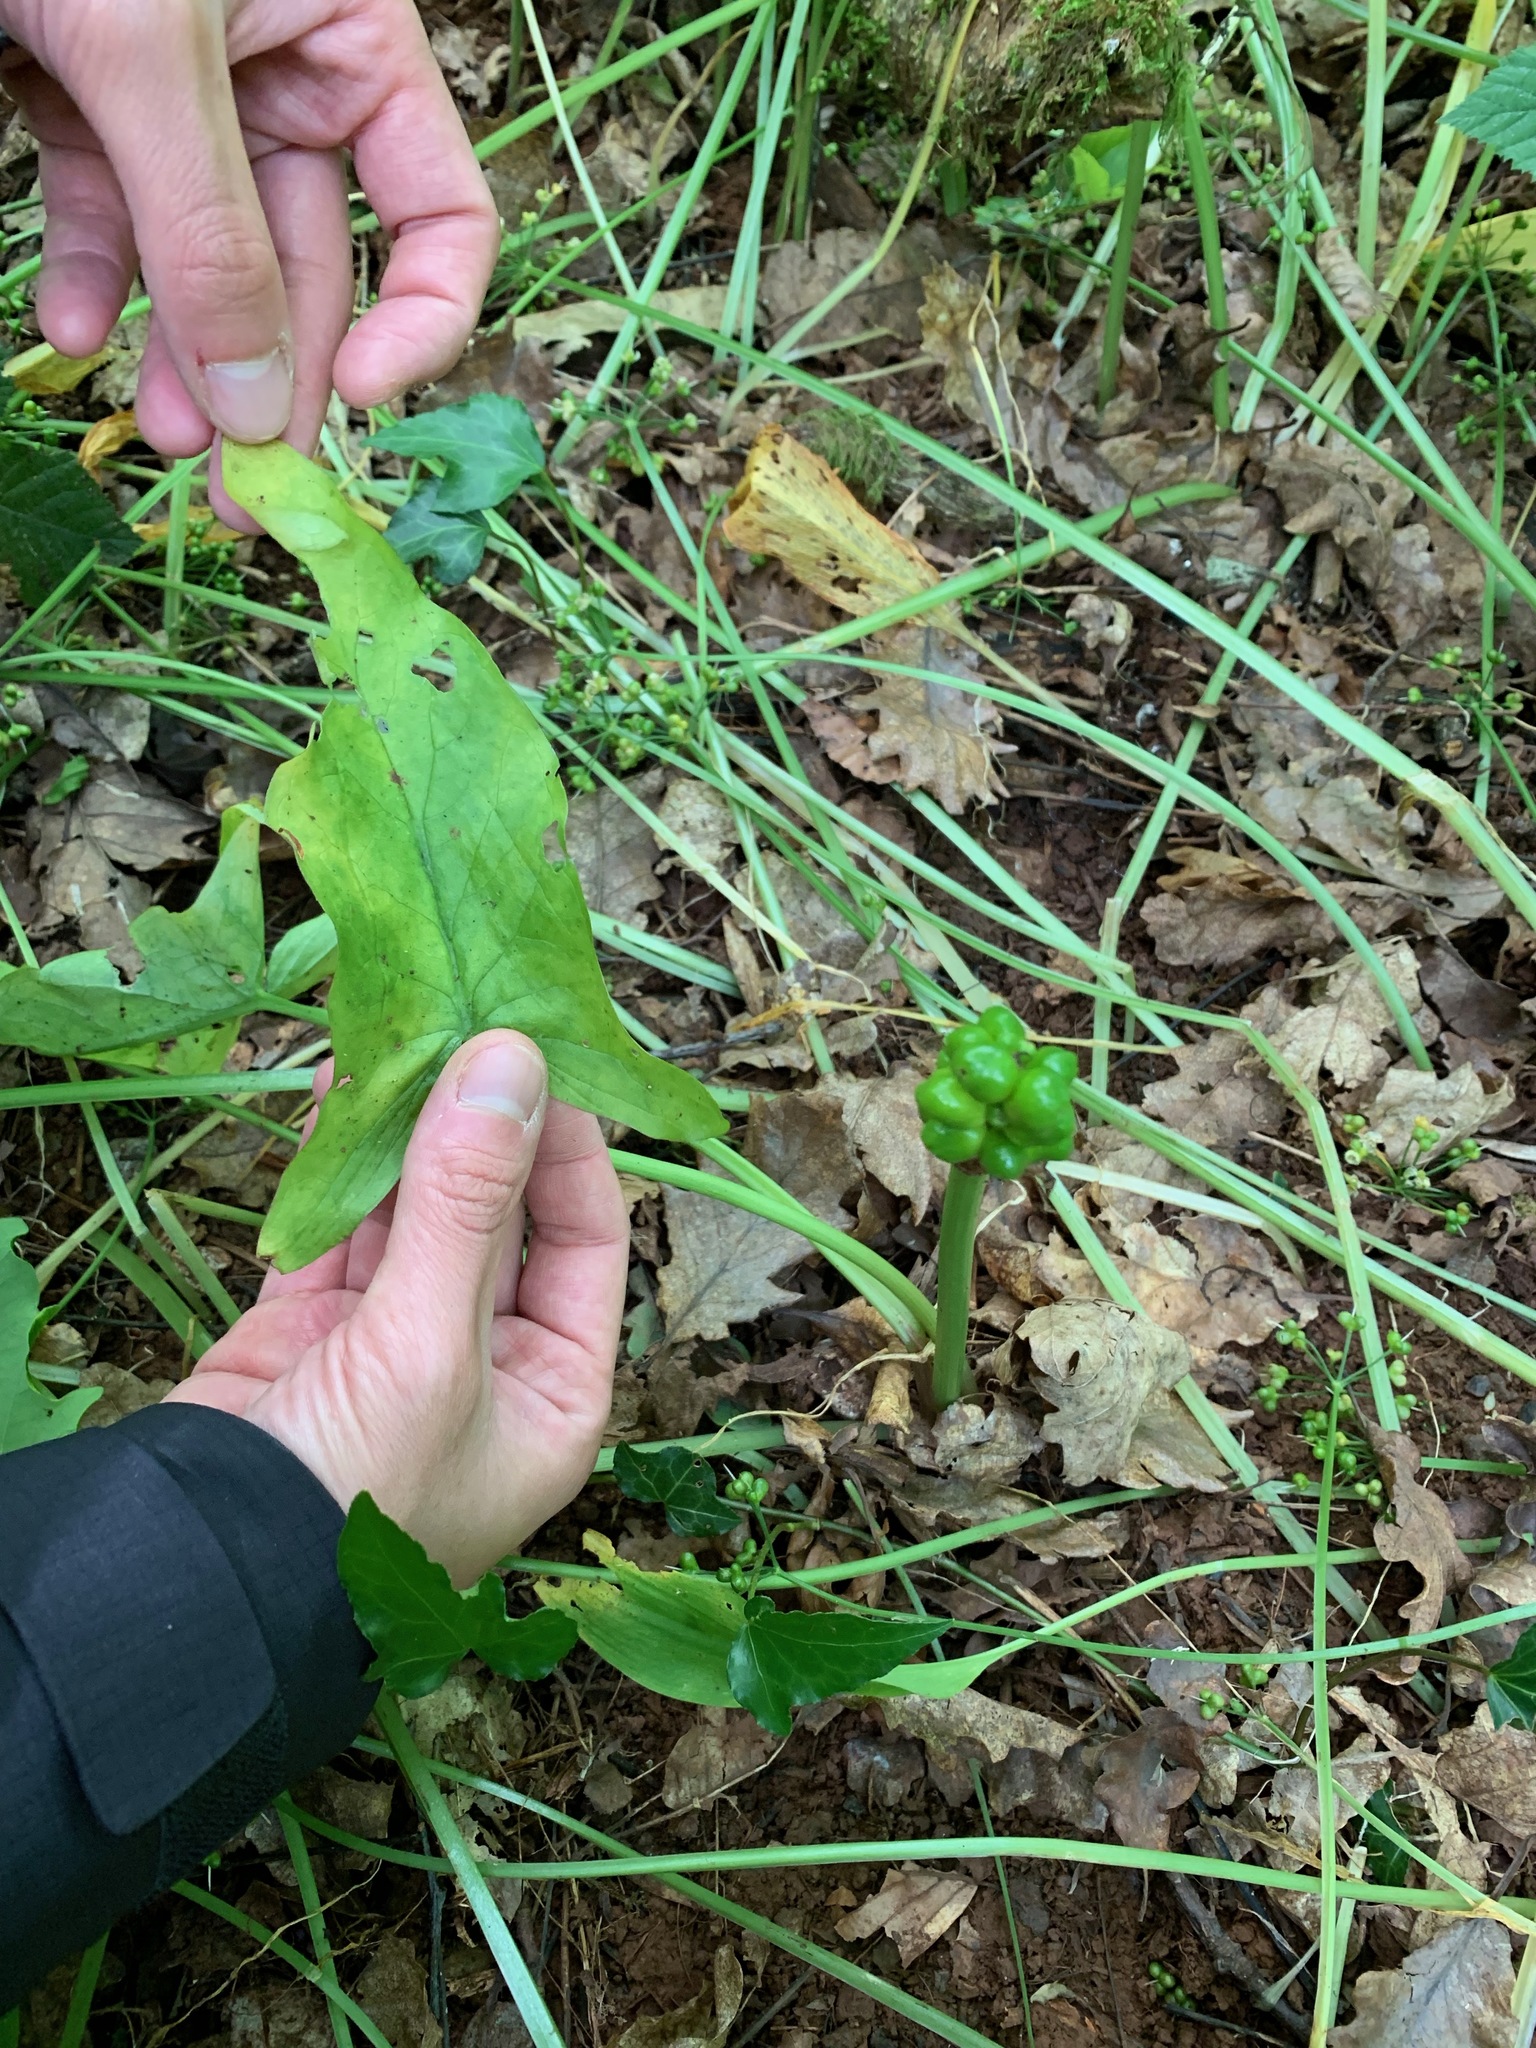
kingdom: Plantae
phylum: Tracheophyta
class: Liliopsida
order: Alismatales
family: Araceae
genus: Arum
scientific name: Arum maculatum
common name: Lords-and-ladies
